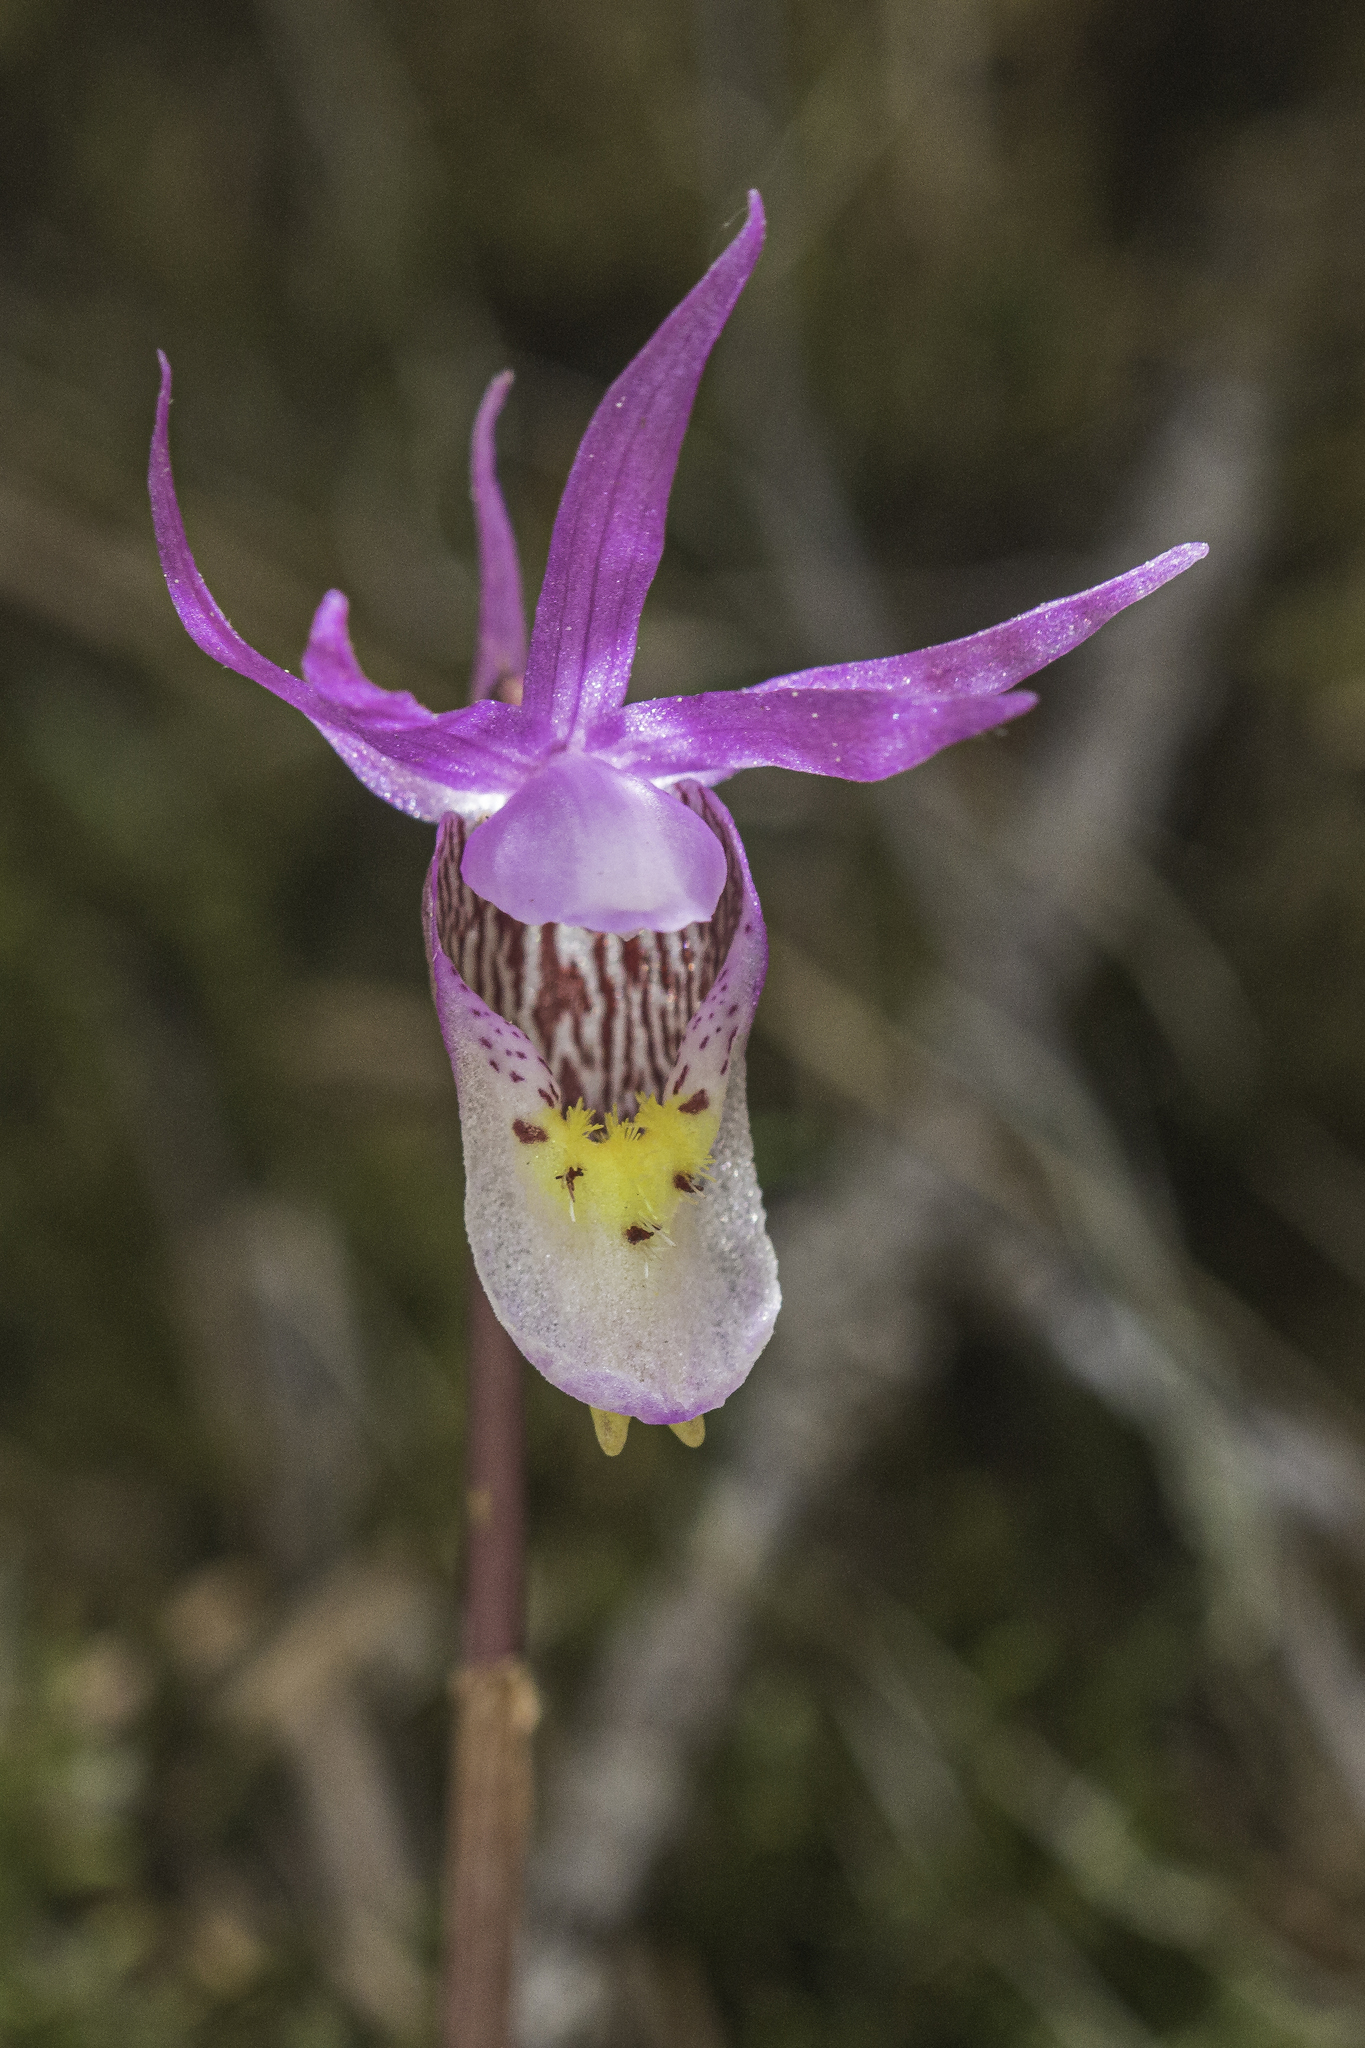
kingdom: Plantae
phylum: Tracheophyta
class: Liliopsida
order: Asparagales
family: Orchidaceae
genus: Calypso
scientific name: Calypso bulbosa
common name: Calypso
